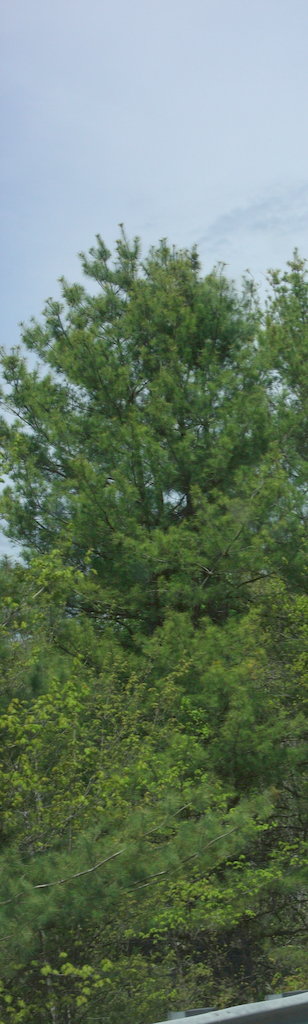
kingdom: Plantae
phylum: Tracheophyta
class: Pinopsida
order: Pinales
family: Pinaceae
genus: Pinus
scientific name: Pinus strobus
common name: Weymouth pine
